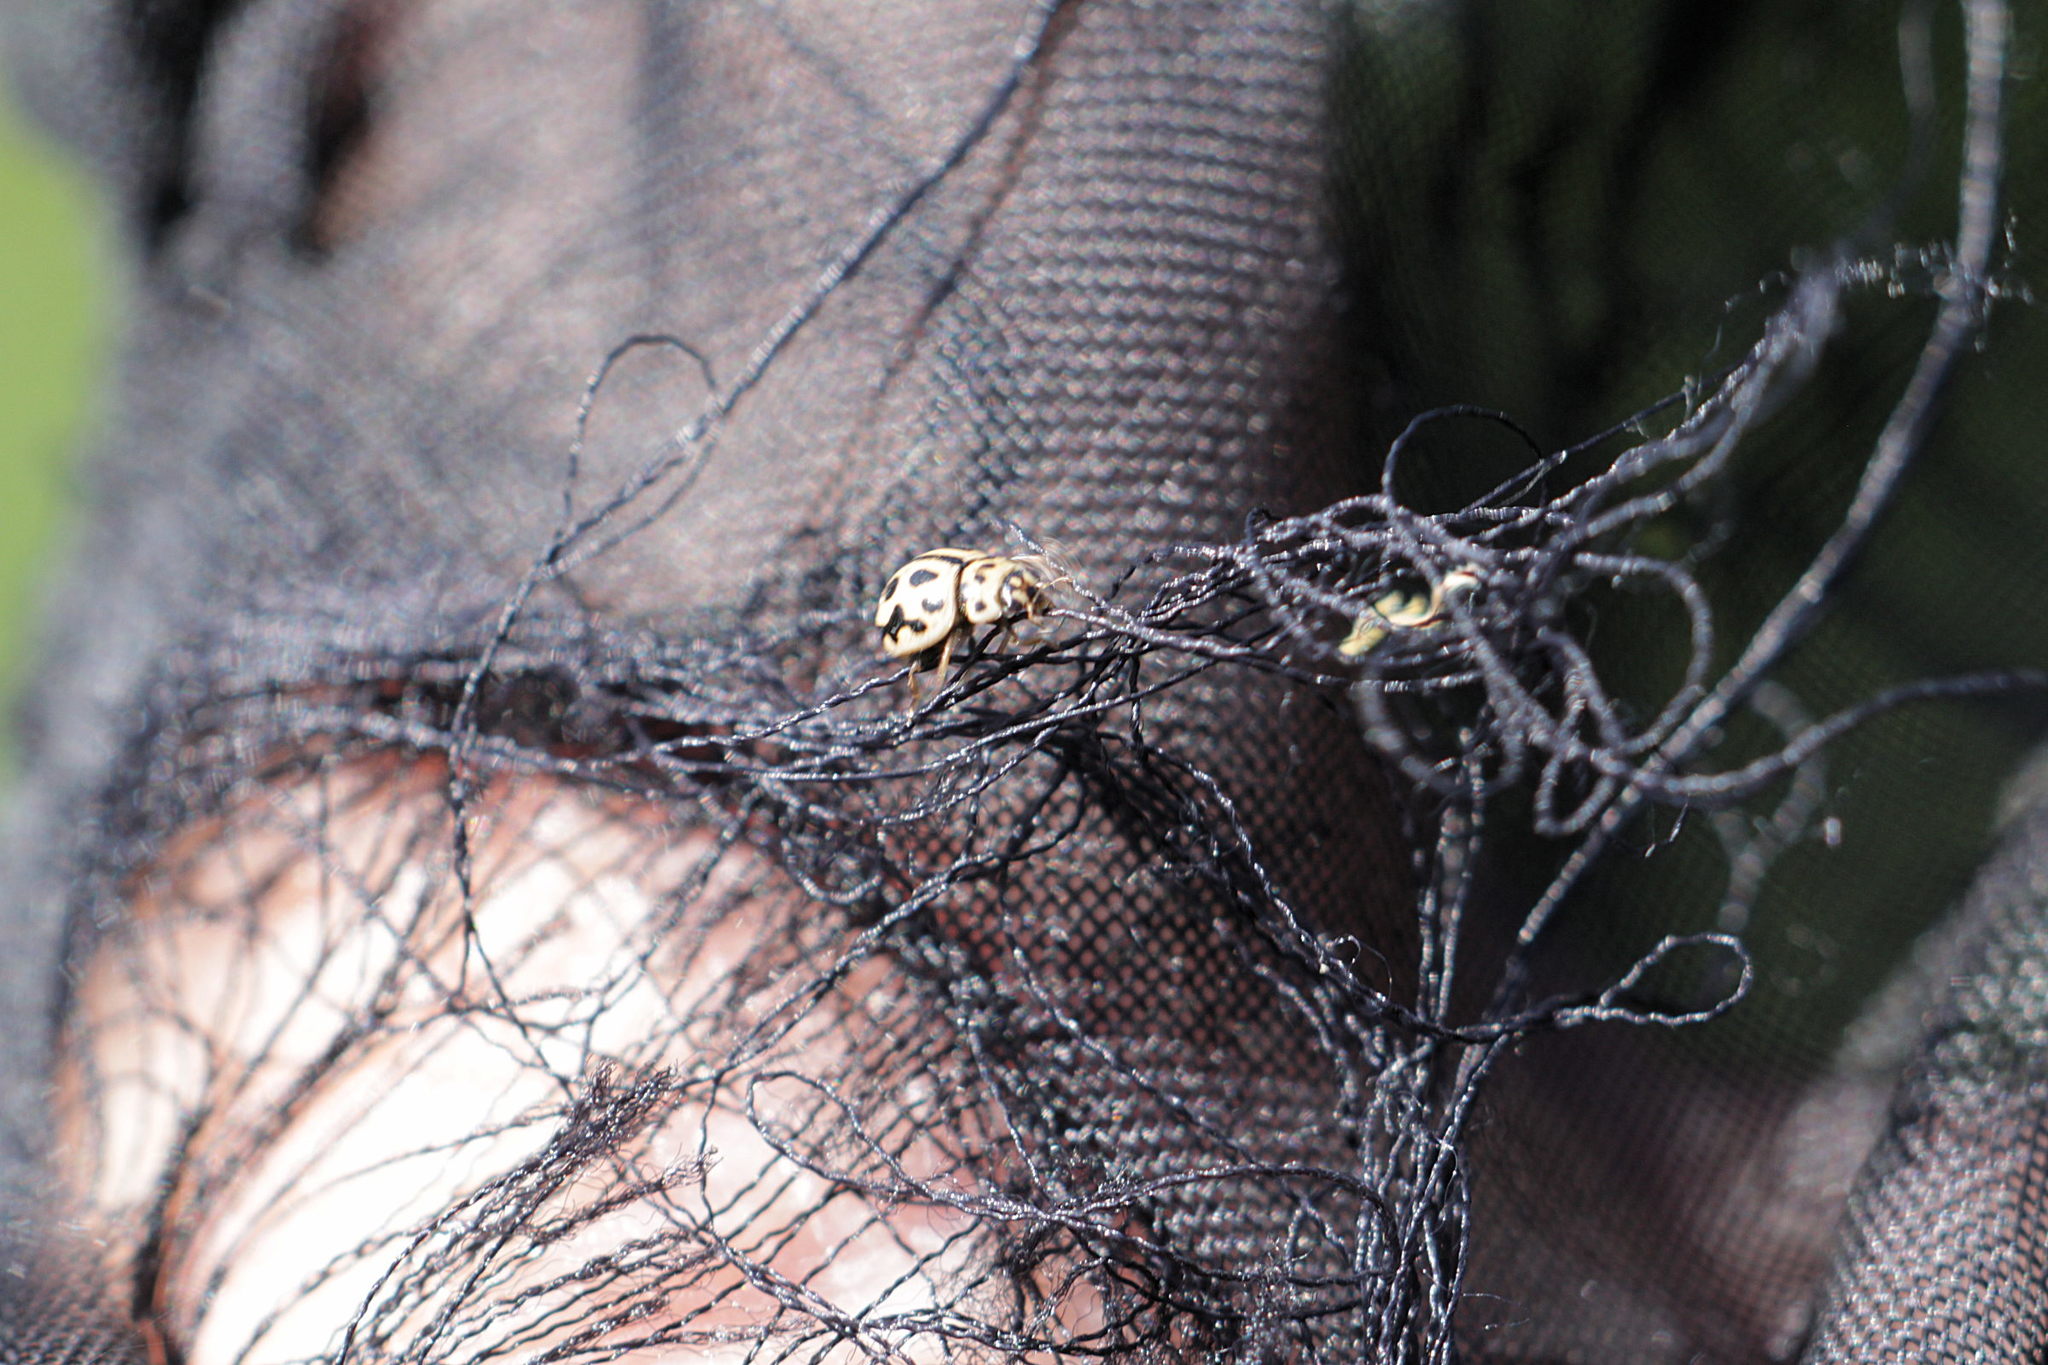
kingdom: Animalia
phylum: Arthropoda
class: Insecta
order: Coleoptera
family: Coccinellidae
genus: Tytthaspis
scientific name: Tytthaspis sedecimpunctata
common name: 16-spot ladybird
